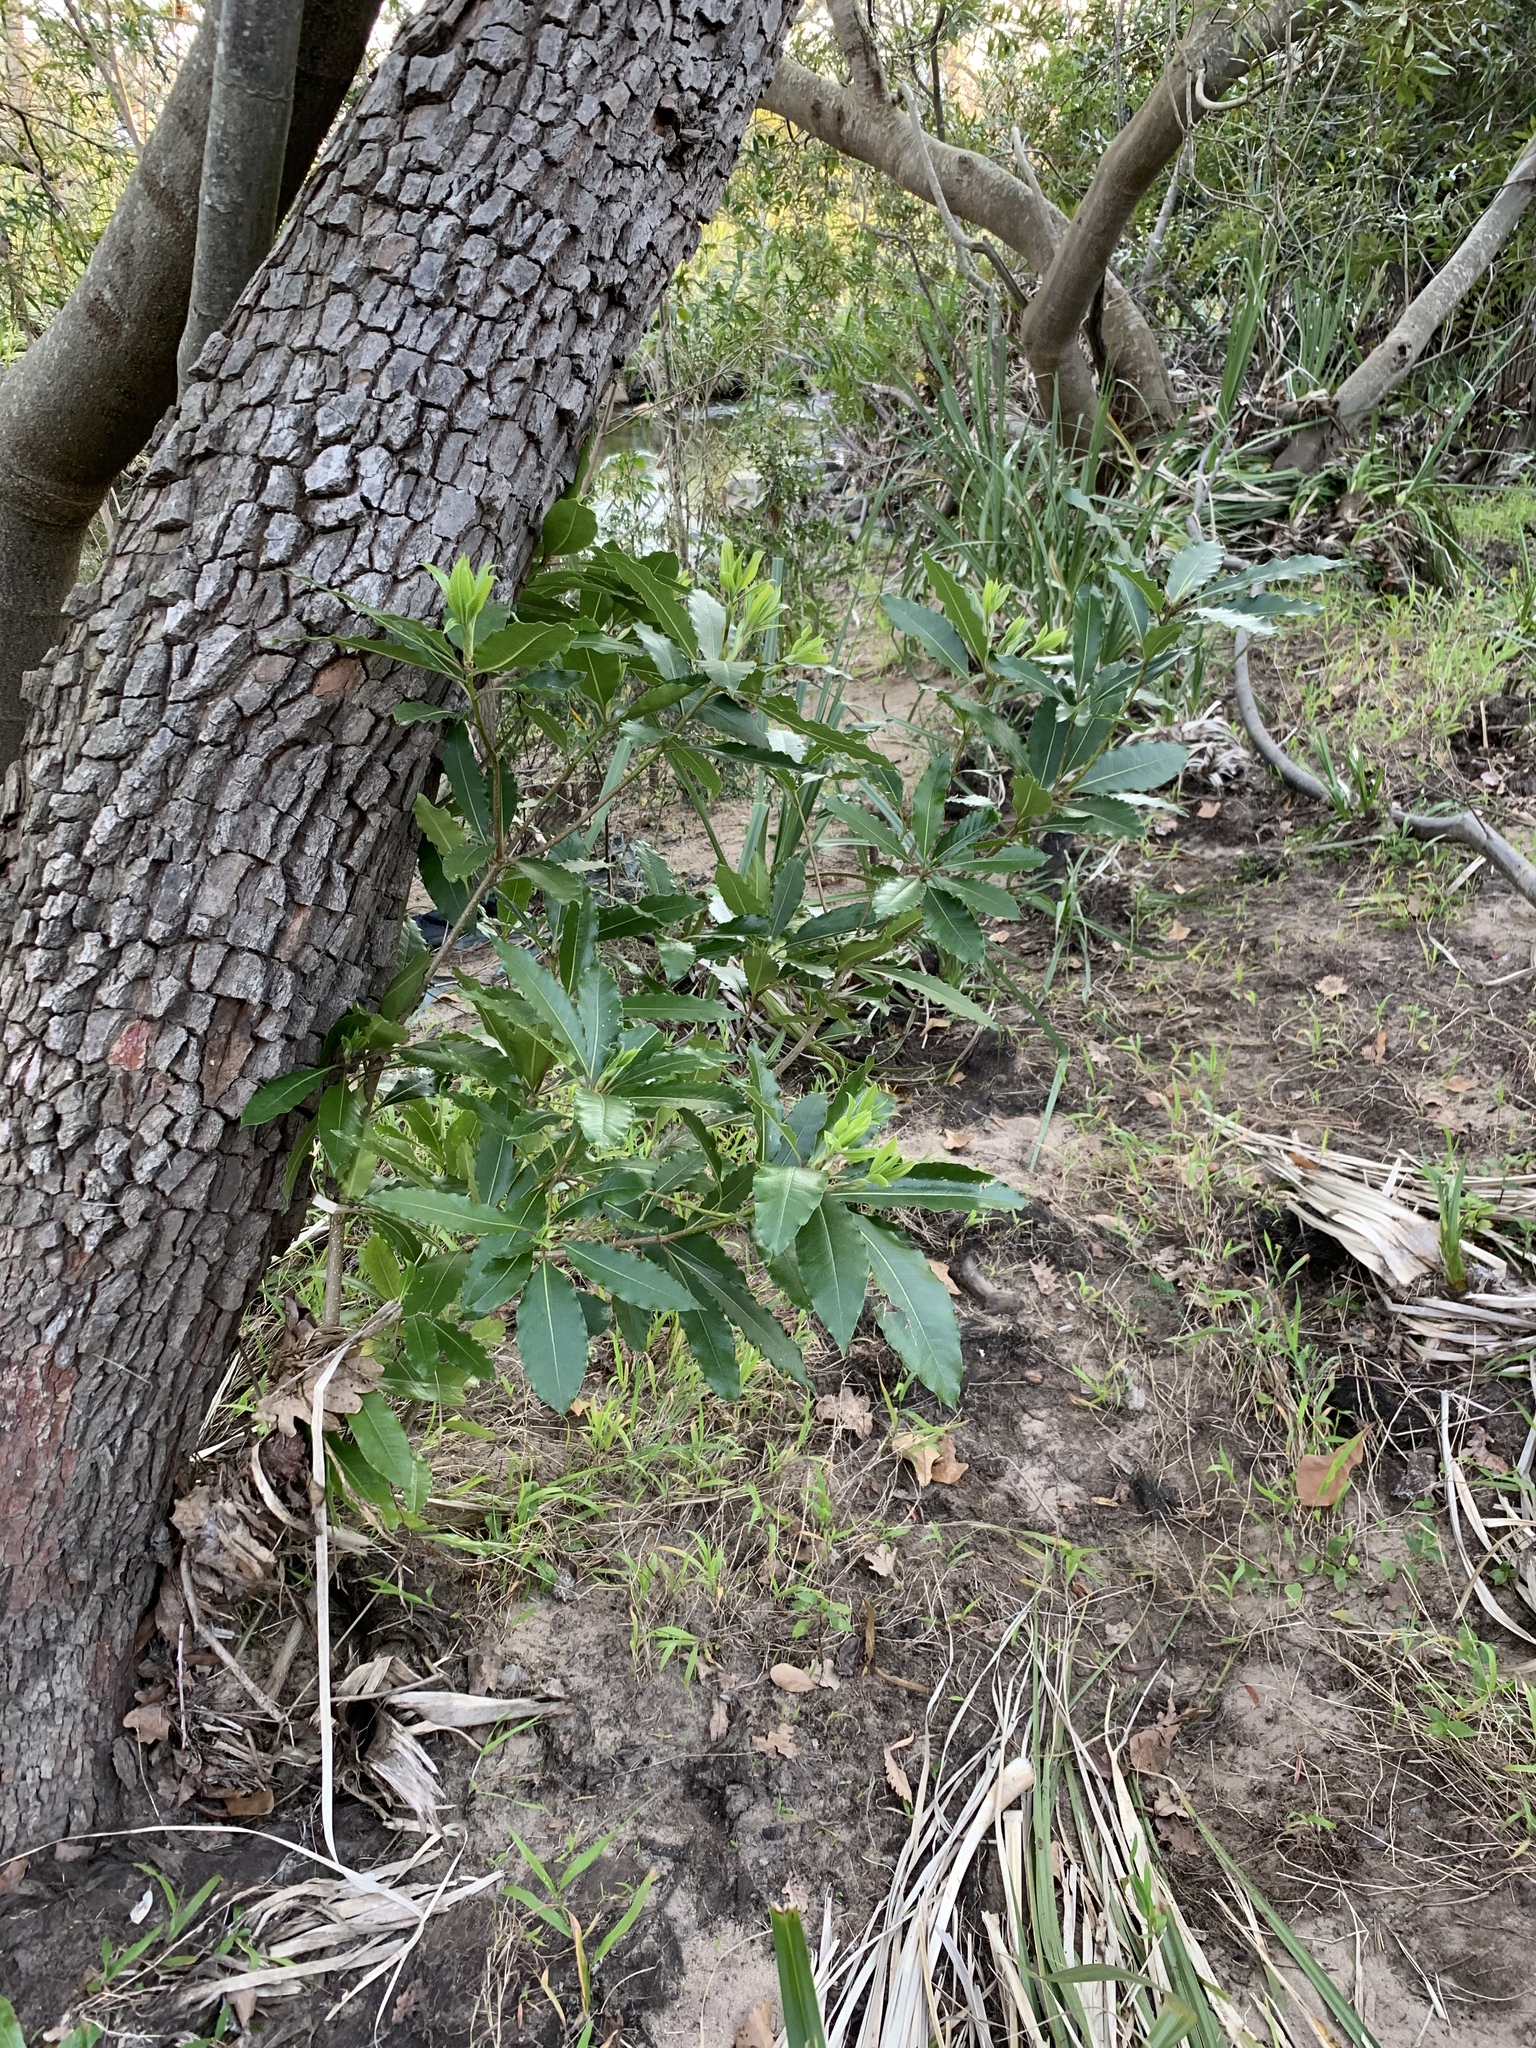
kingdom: Plantae
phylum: Tracheophyta
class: Magnoliopsida
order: Apiales
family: Pittosporaceae
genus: Pittosporum
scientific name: Pittosporum undulatum
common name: Australian cheesewood
